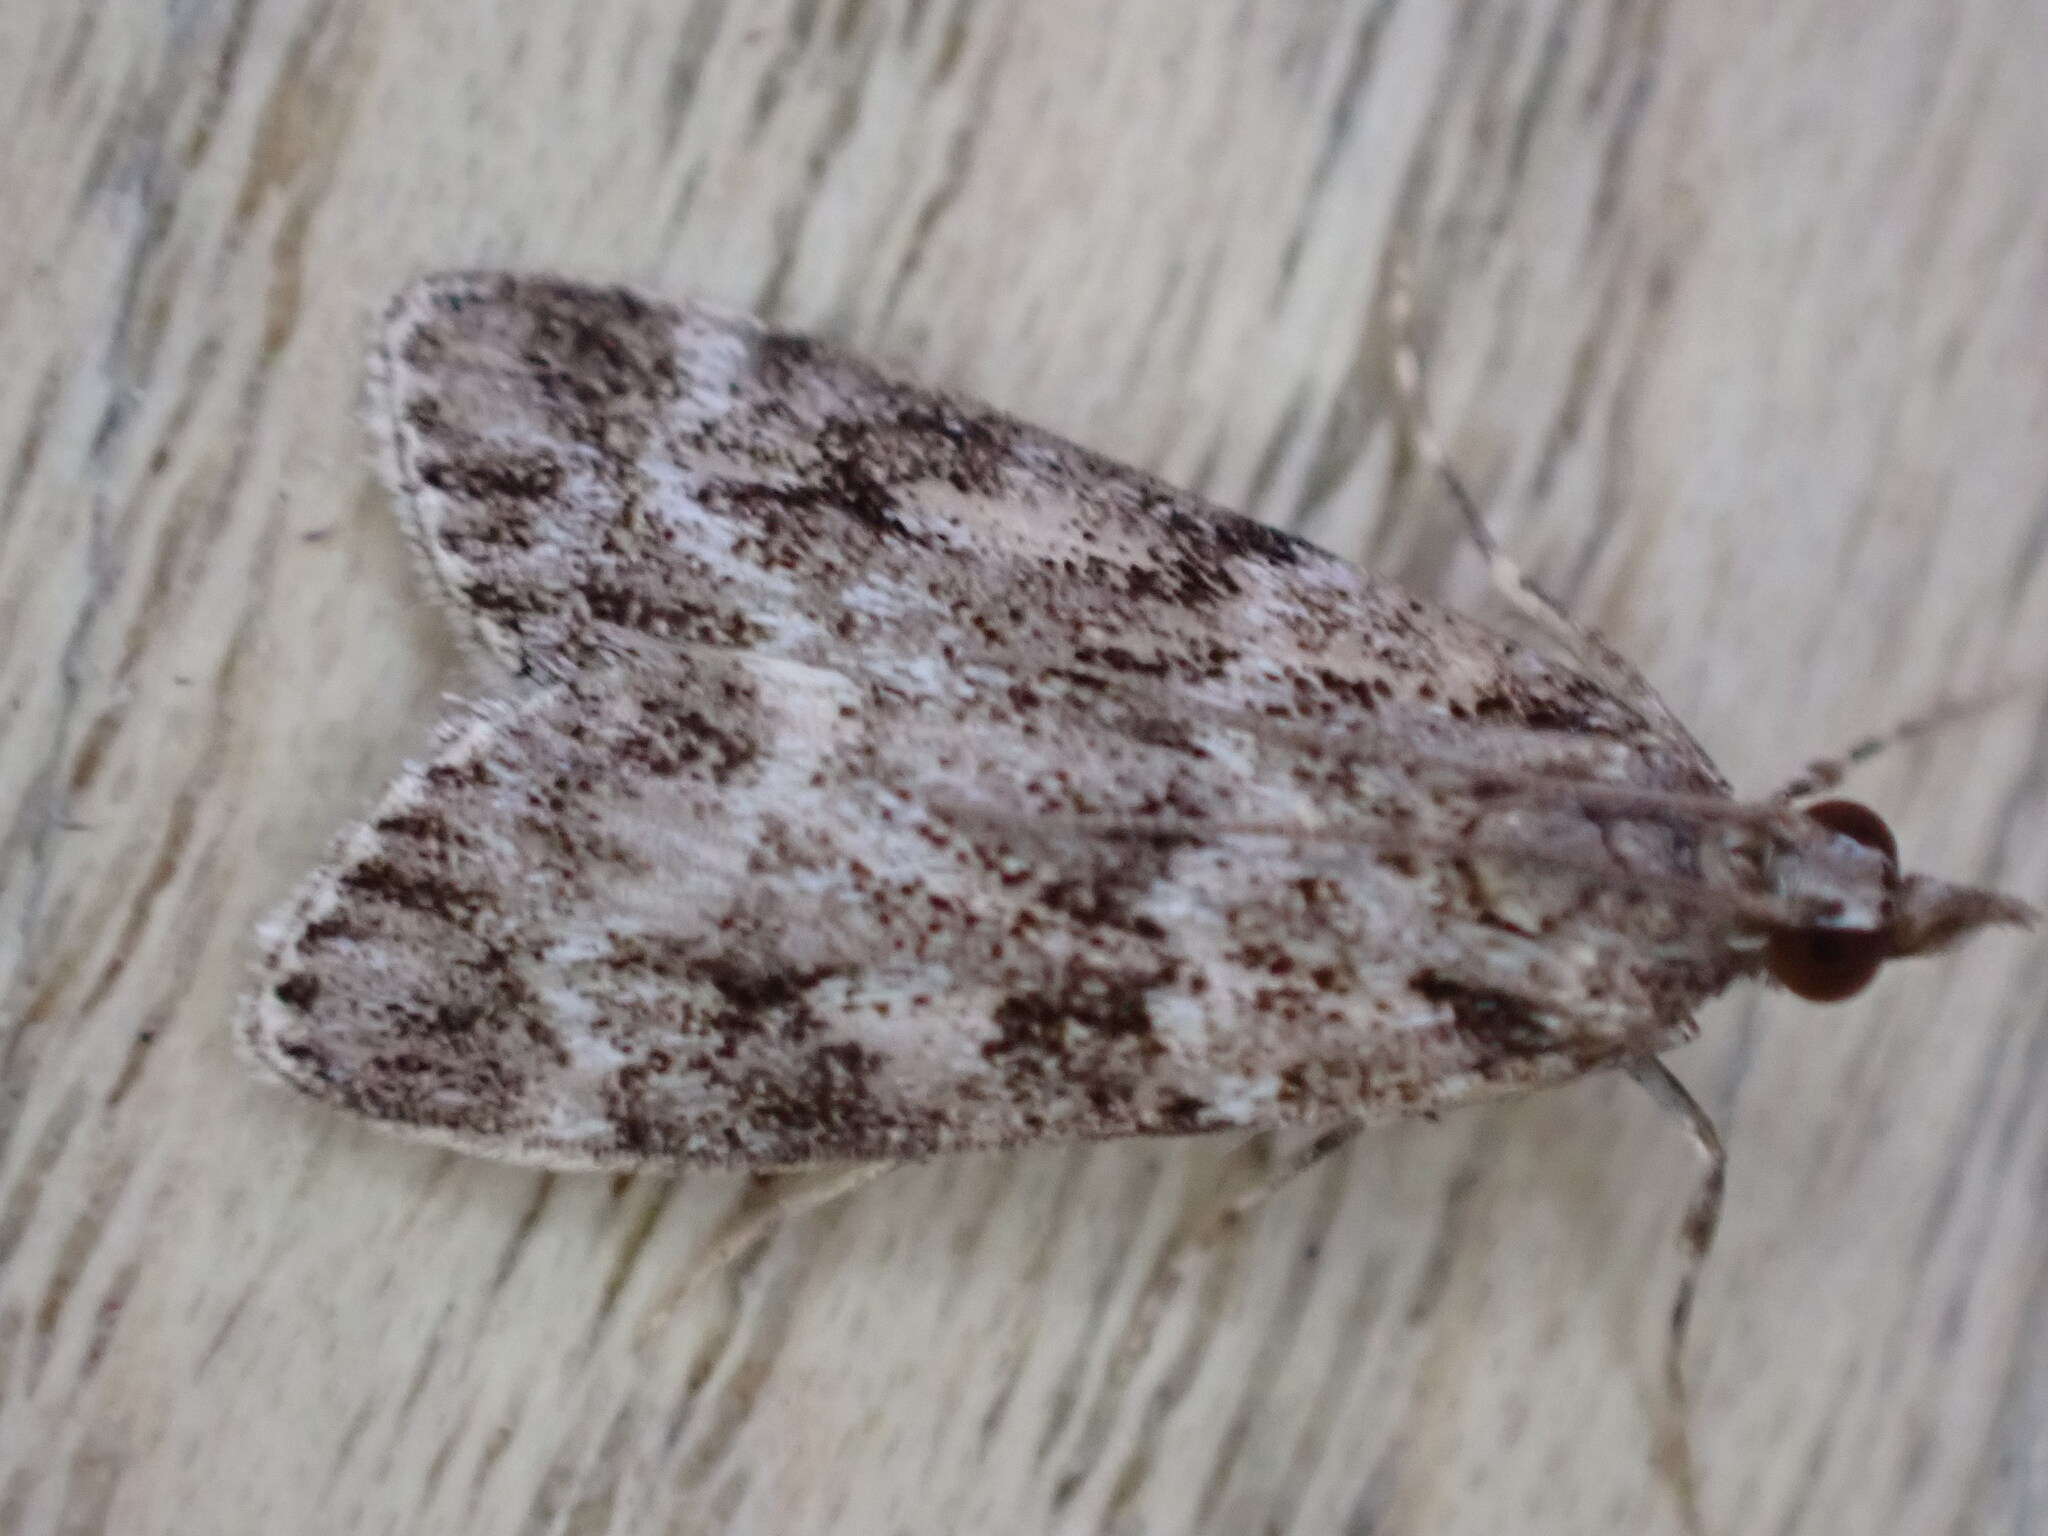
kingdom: Animalia
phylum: Arthropoda
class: Insecta
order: Lepidoptera
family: Crambidae
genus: Eudonia
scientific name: Eudonia mercurella
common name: Small grey
